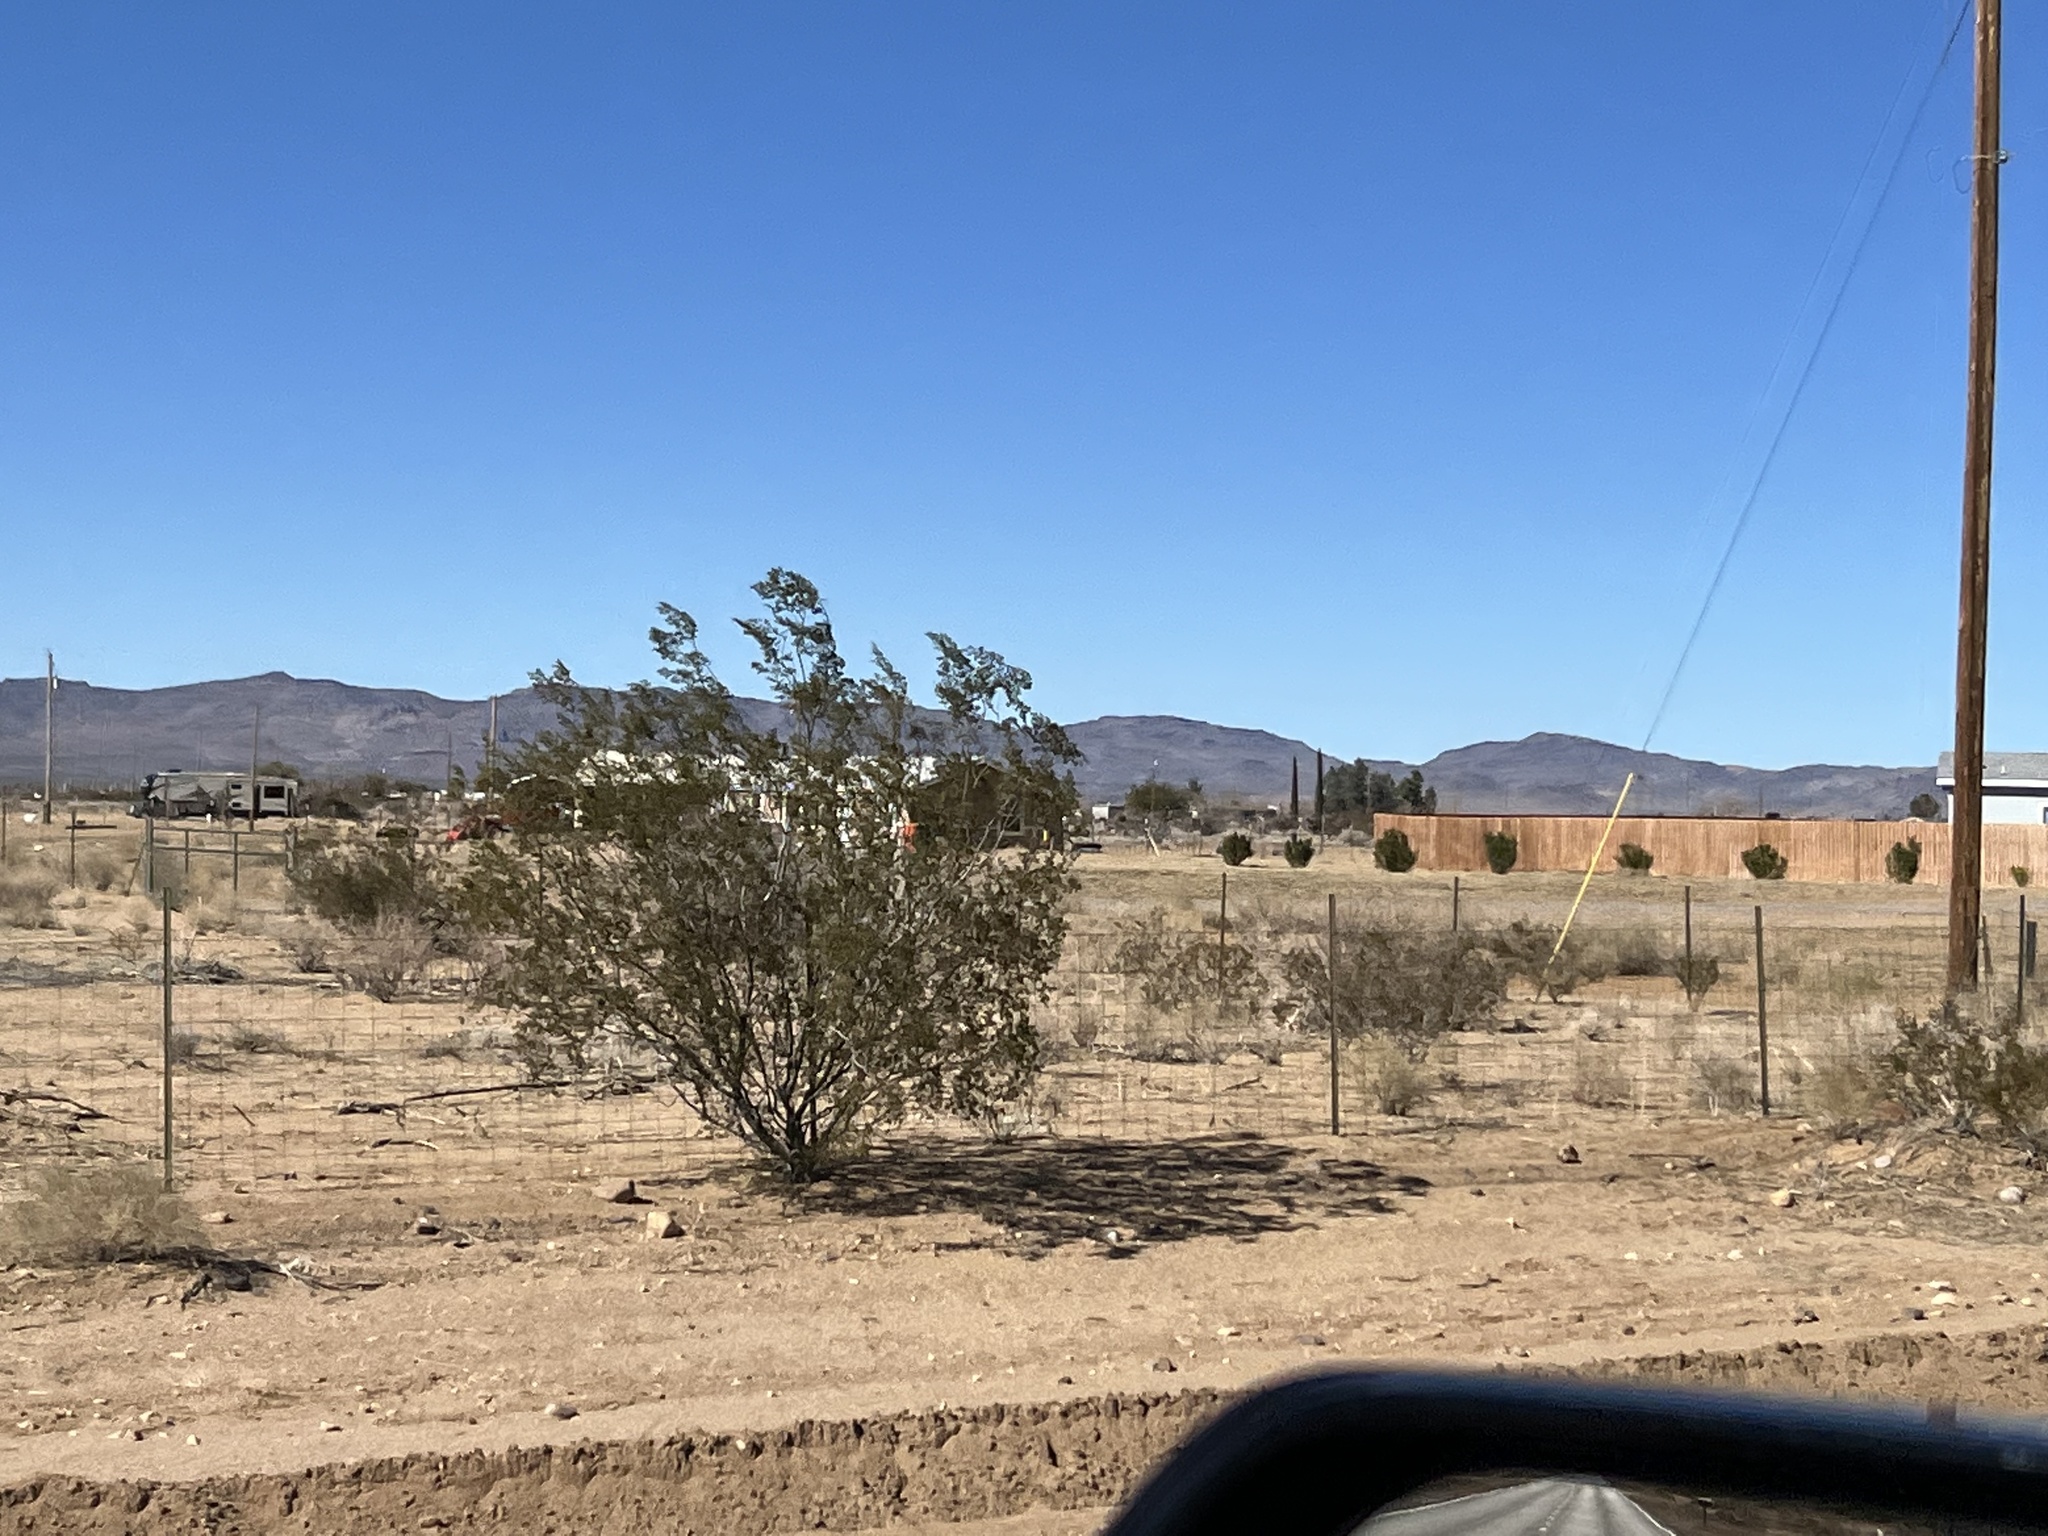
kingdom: Plantae
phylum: Tracheophyta
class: Magnoliopsida
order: Zygophyllales
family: Zygophyllaceae
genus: Larrea
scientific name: Larrea tridentata
